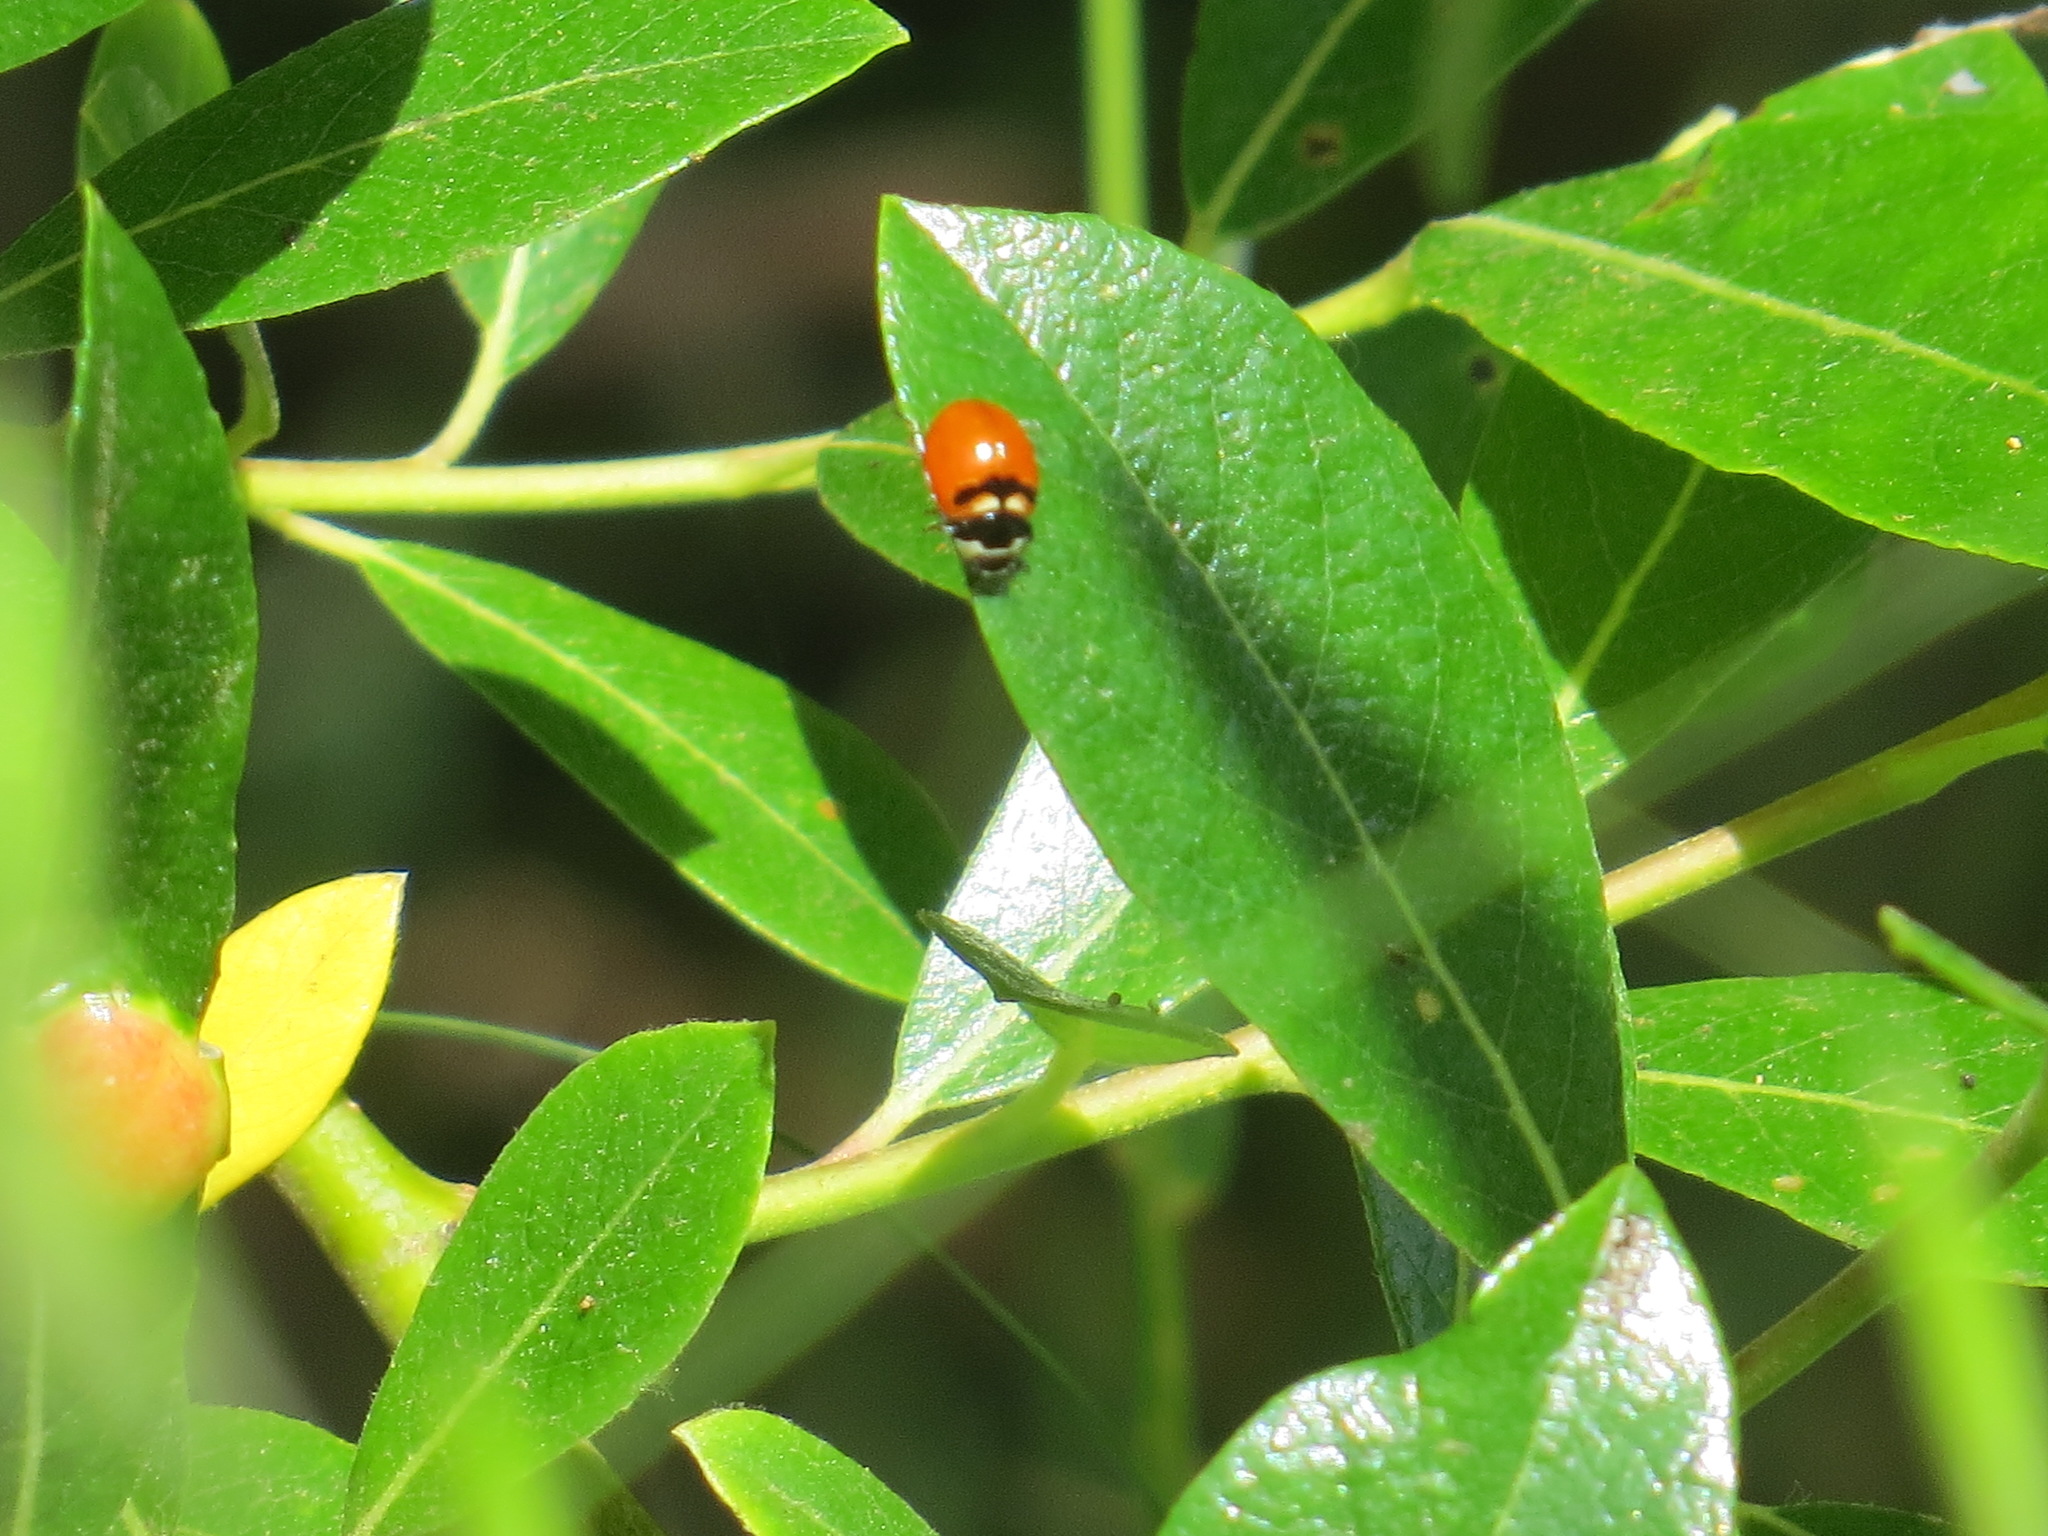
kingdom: Animalia
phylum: Arthropoda
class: Insecta
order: Coleoptera
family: Coccinellidae
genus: Coccinella
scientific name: Coccinella trifasciata
